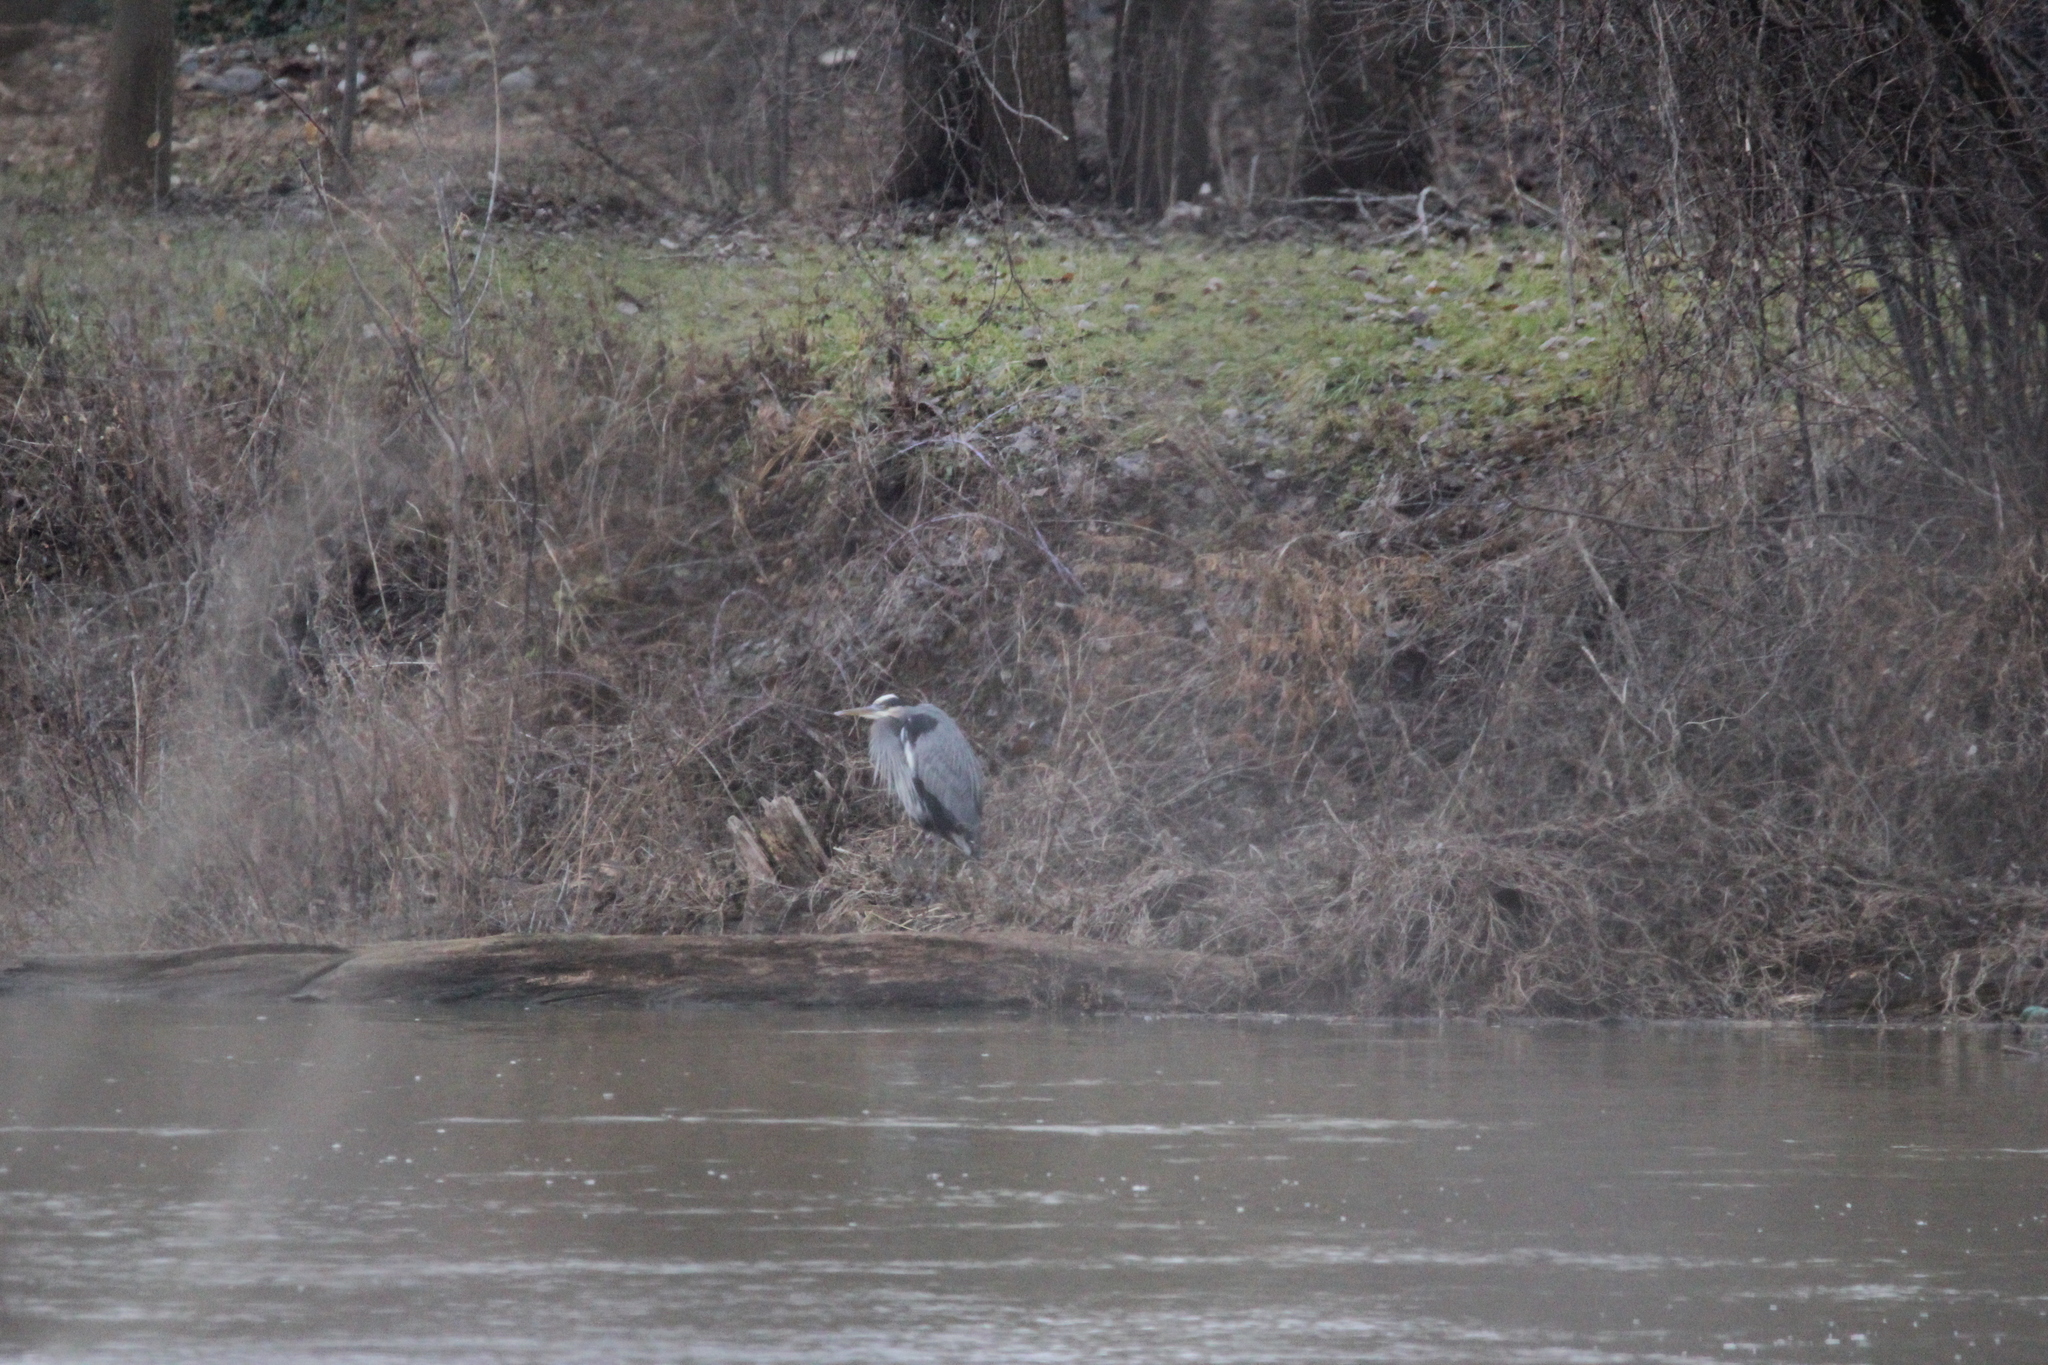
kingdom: Animalia
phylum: Chordata
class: Aves
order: Pelecaniformes
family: Ardeidae
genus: Ardea
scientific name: Ardea herodias
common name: Great blue heron
